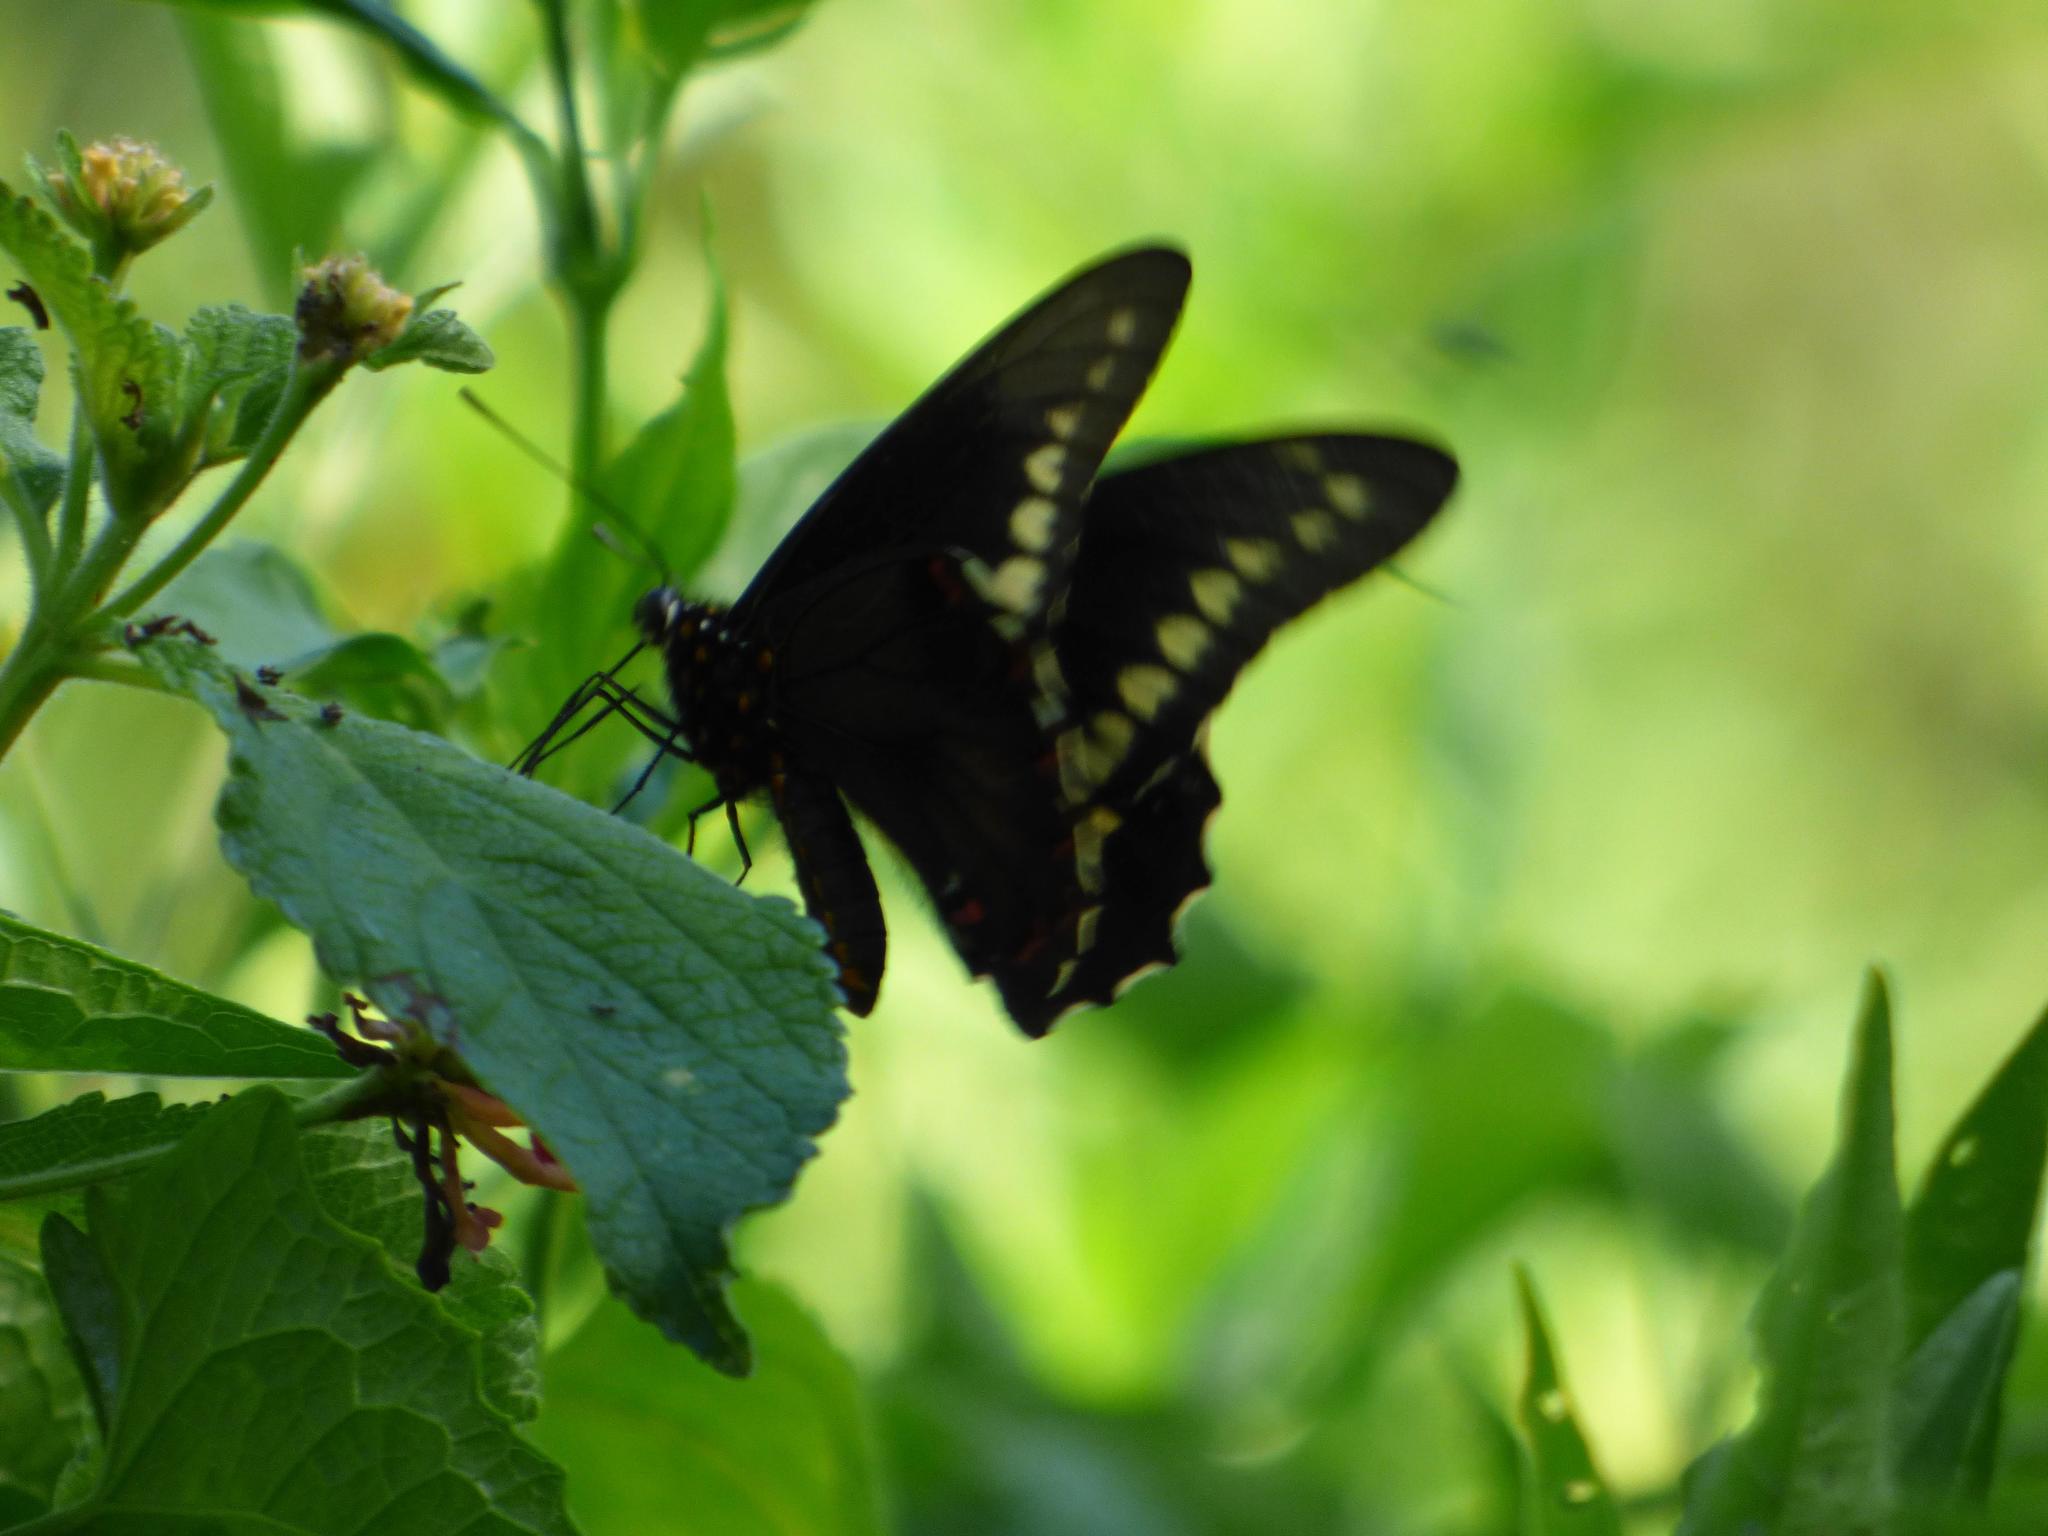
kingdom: Animalia
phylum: Arthropoda
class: Insecta
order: Lepidoptera
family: Papilionidae
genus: Battus
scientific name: Battus polydamas
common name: Polydamas swallowtail
